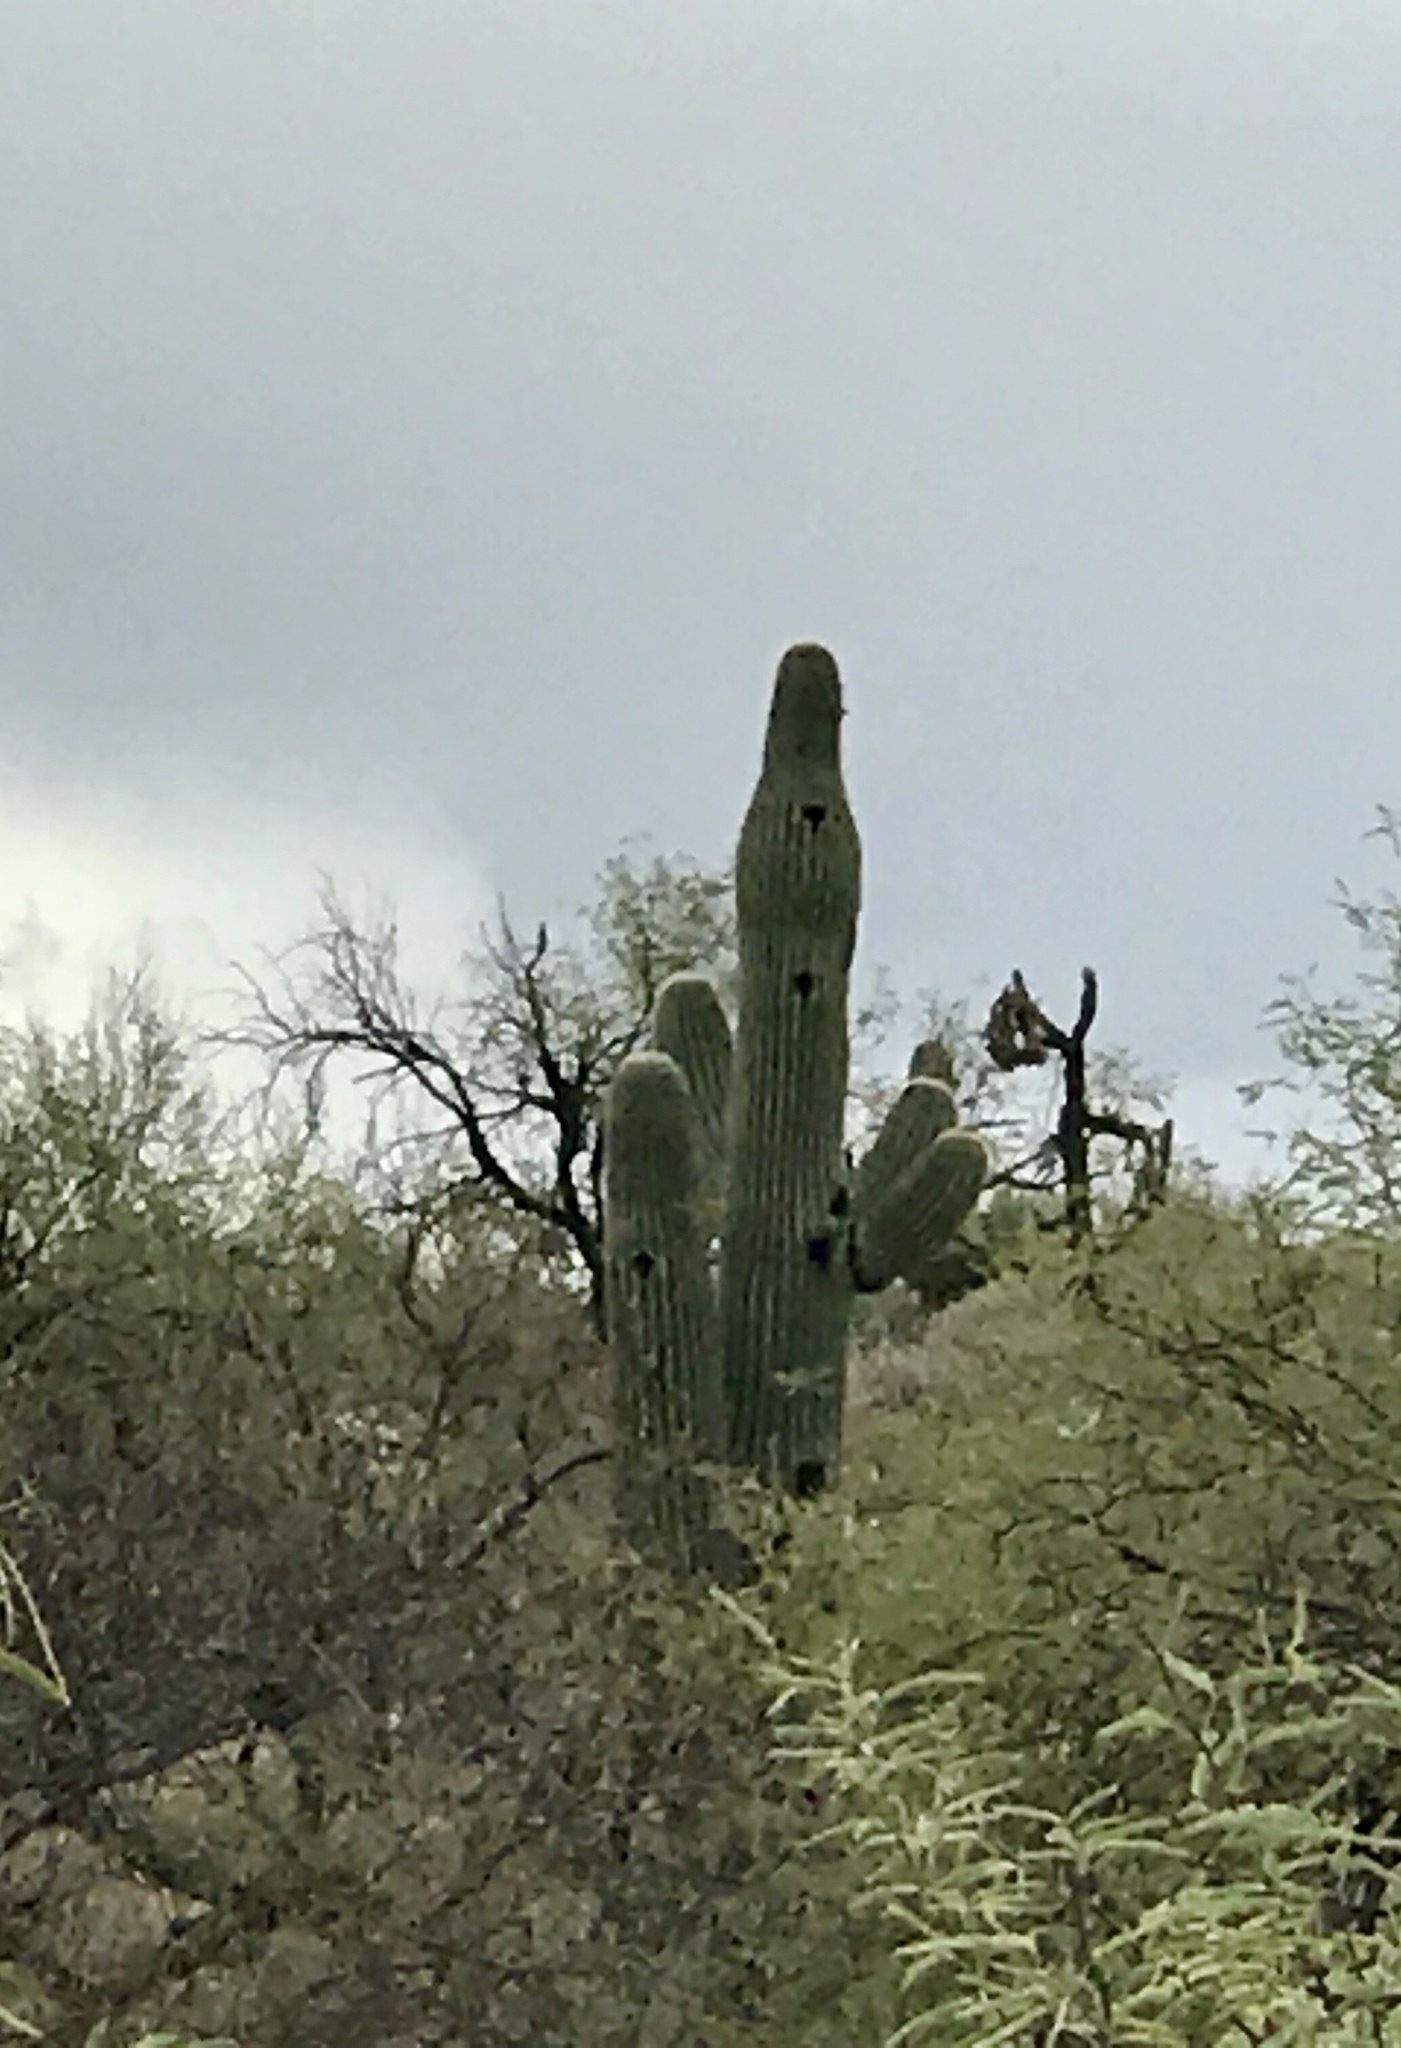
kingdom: Plantae
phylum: Tracheophyta
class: Magnoliopsida
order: Caryophyllales
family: Cactaceae
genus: Carnegiea
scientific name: Carnegiea gigantea
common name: Saguaro
